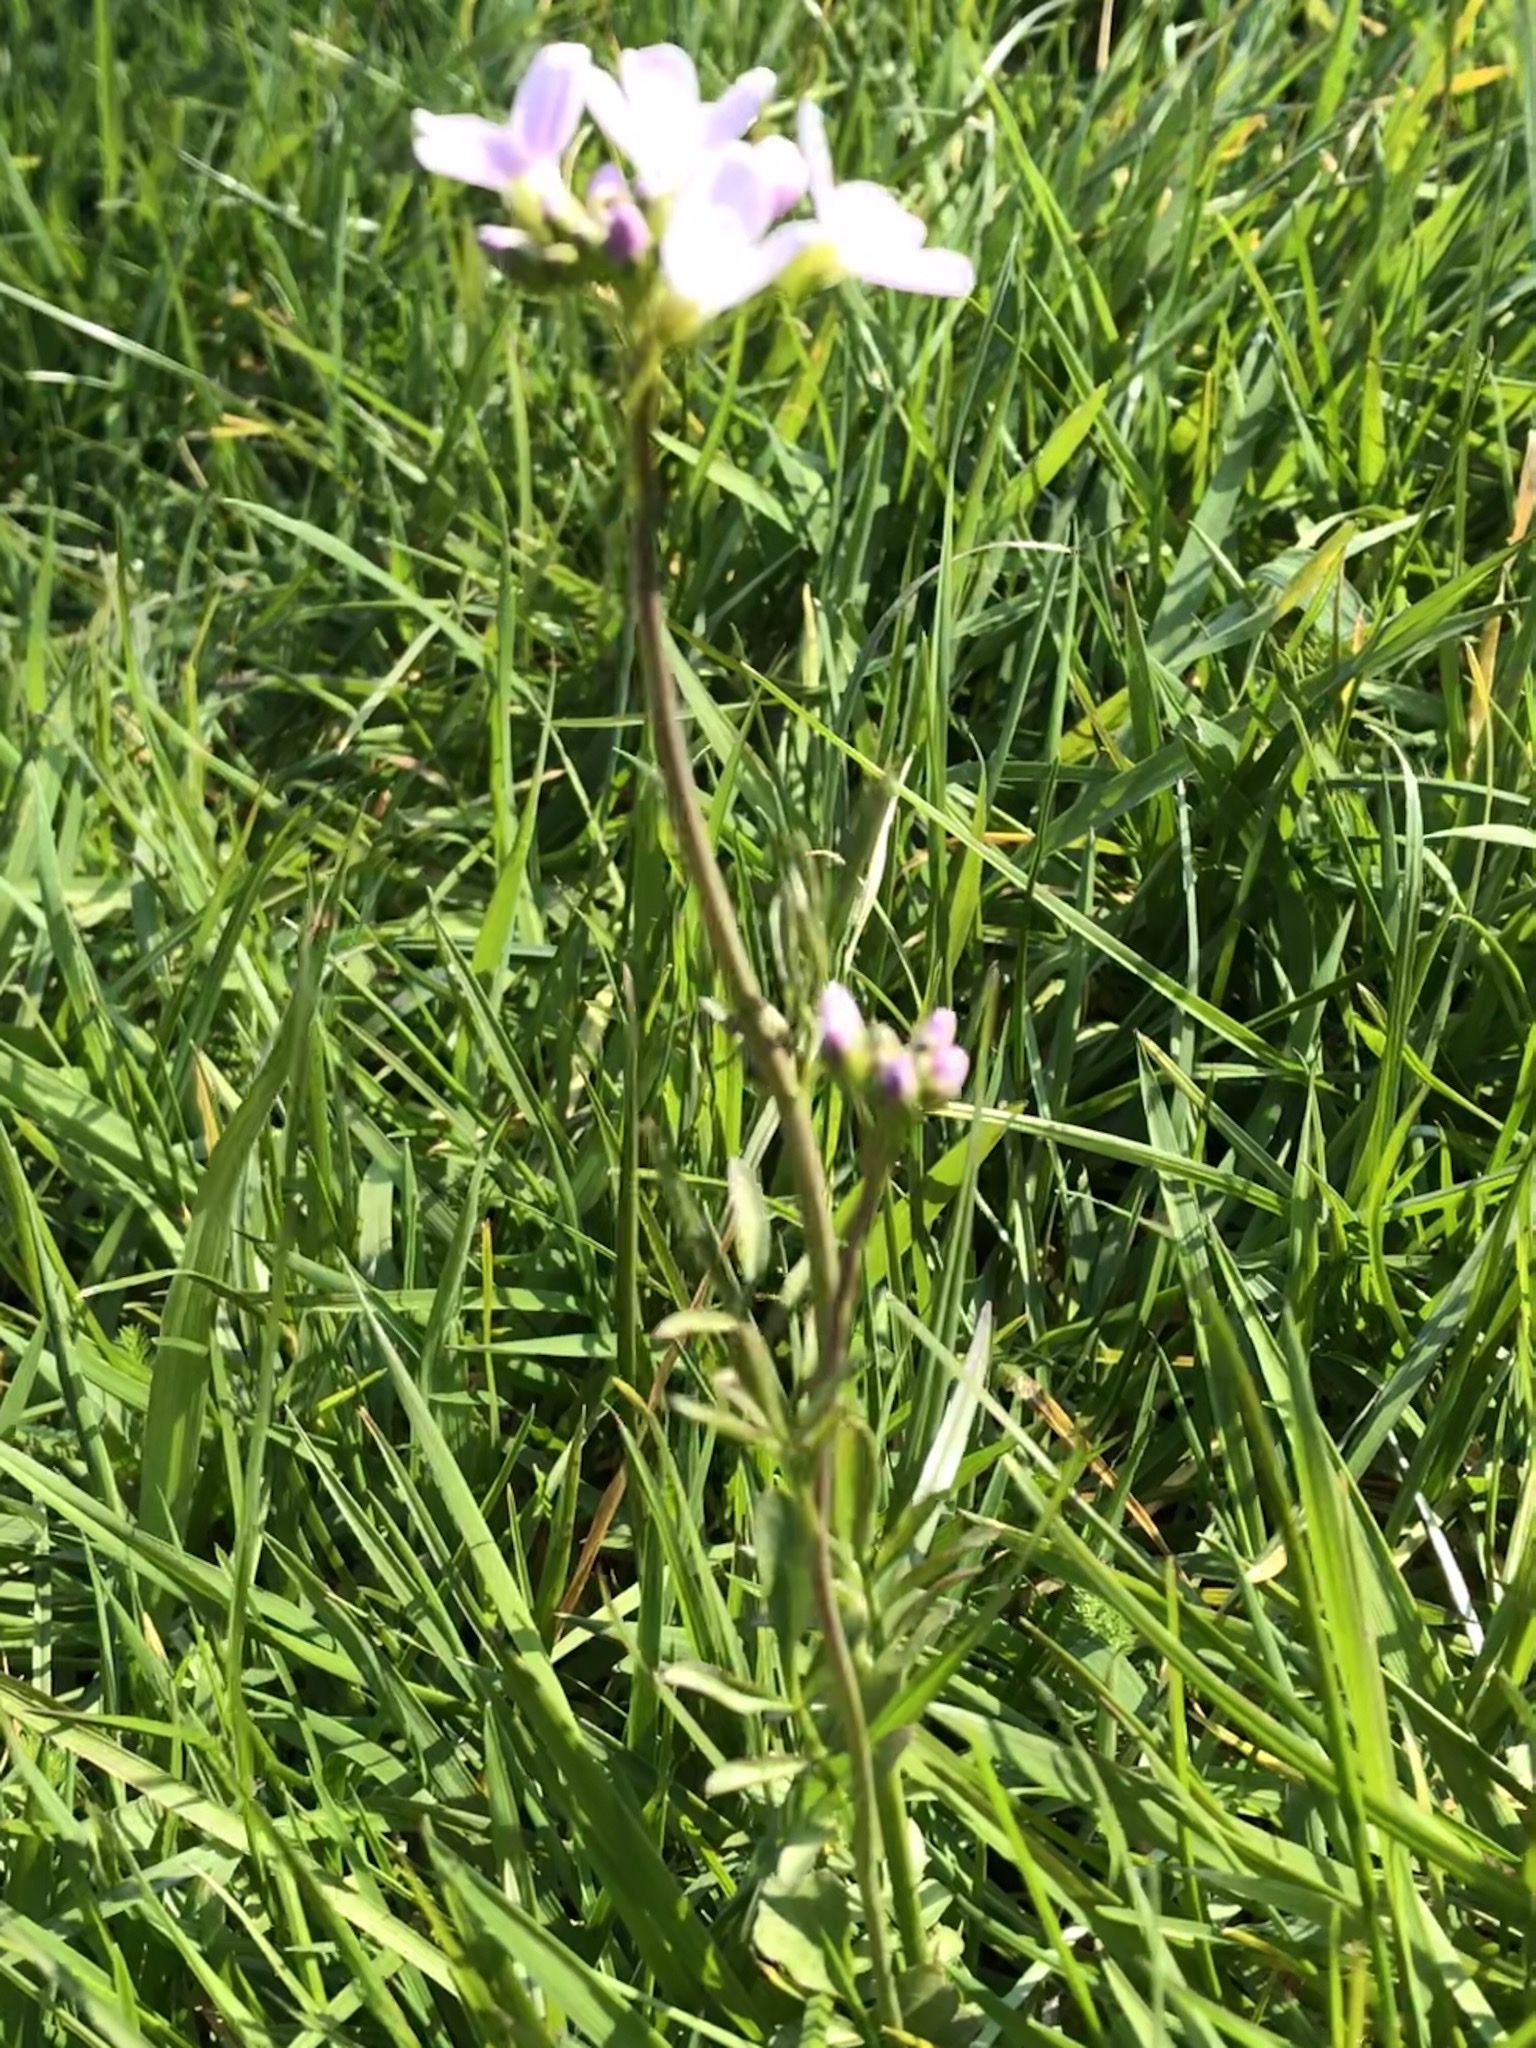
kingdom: Plantae
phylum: Tracheophyta
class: Magnoliopsida
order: Brassicales
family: Brassicaceae
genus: Cardamine
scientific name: Cardamine pratensis
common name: Cuckoo flower
